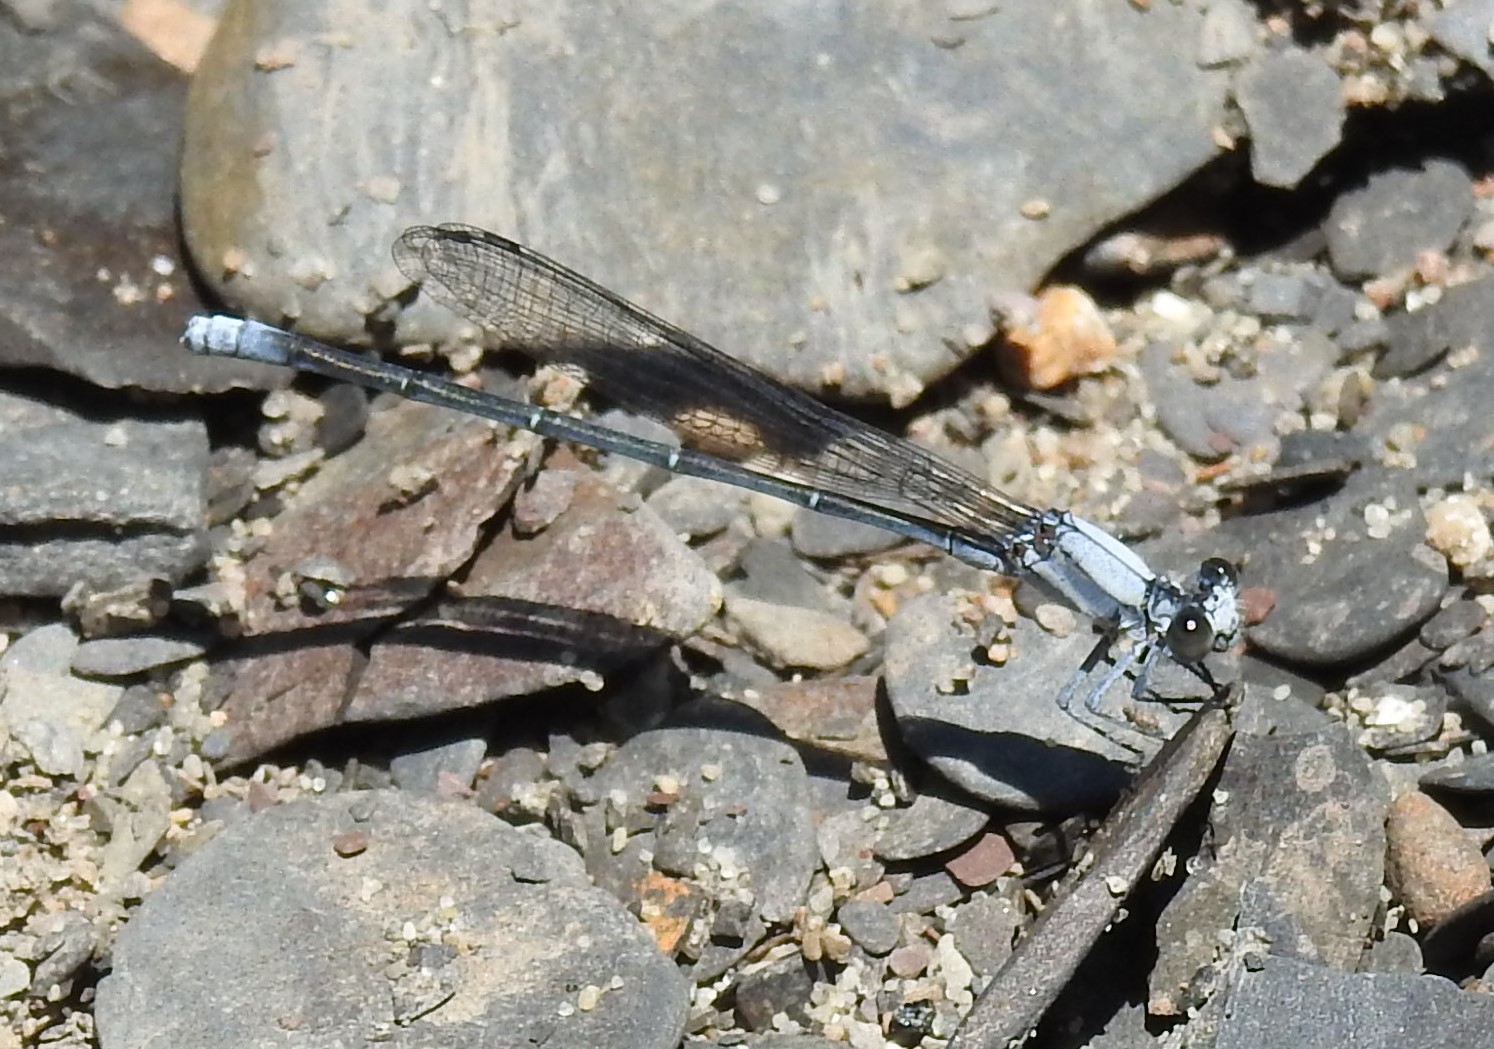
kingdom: Animalia
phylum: Arthropoda
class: Insecta
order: Odonata
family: Coenagrionidae
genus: Argia
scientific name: Argia moesta
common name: Powdered dancer
